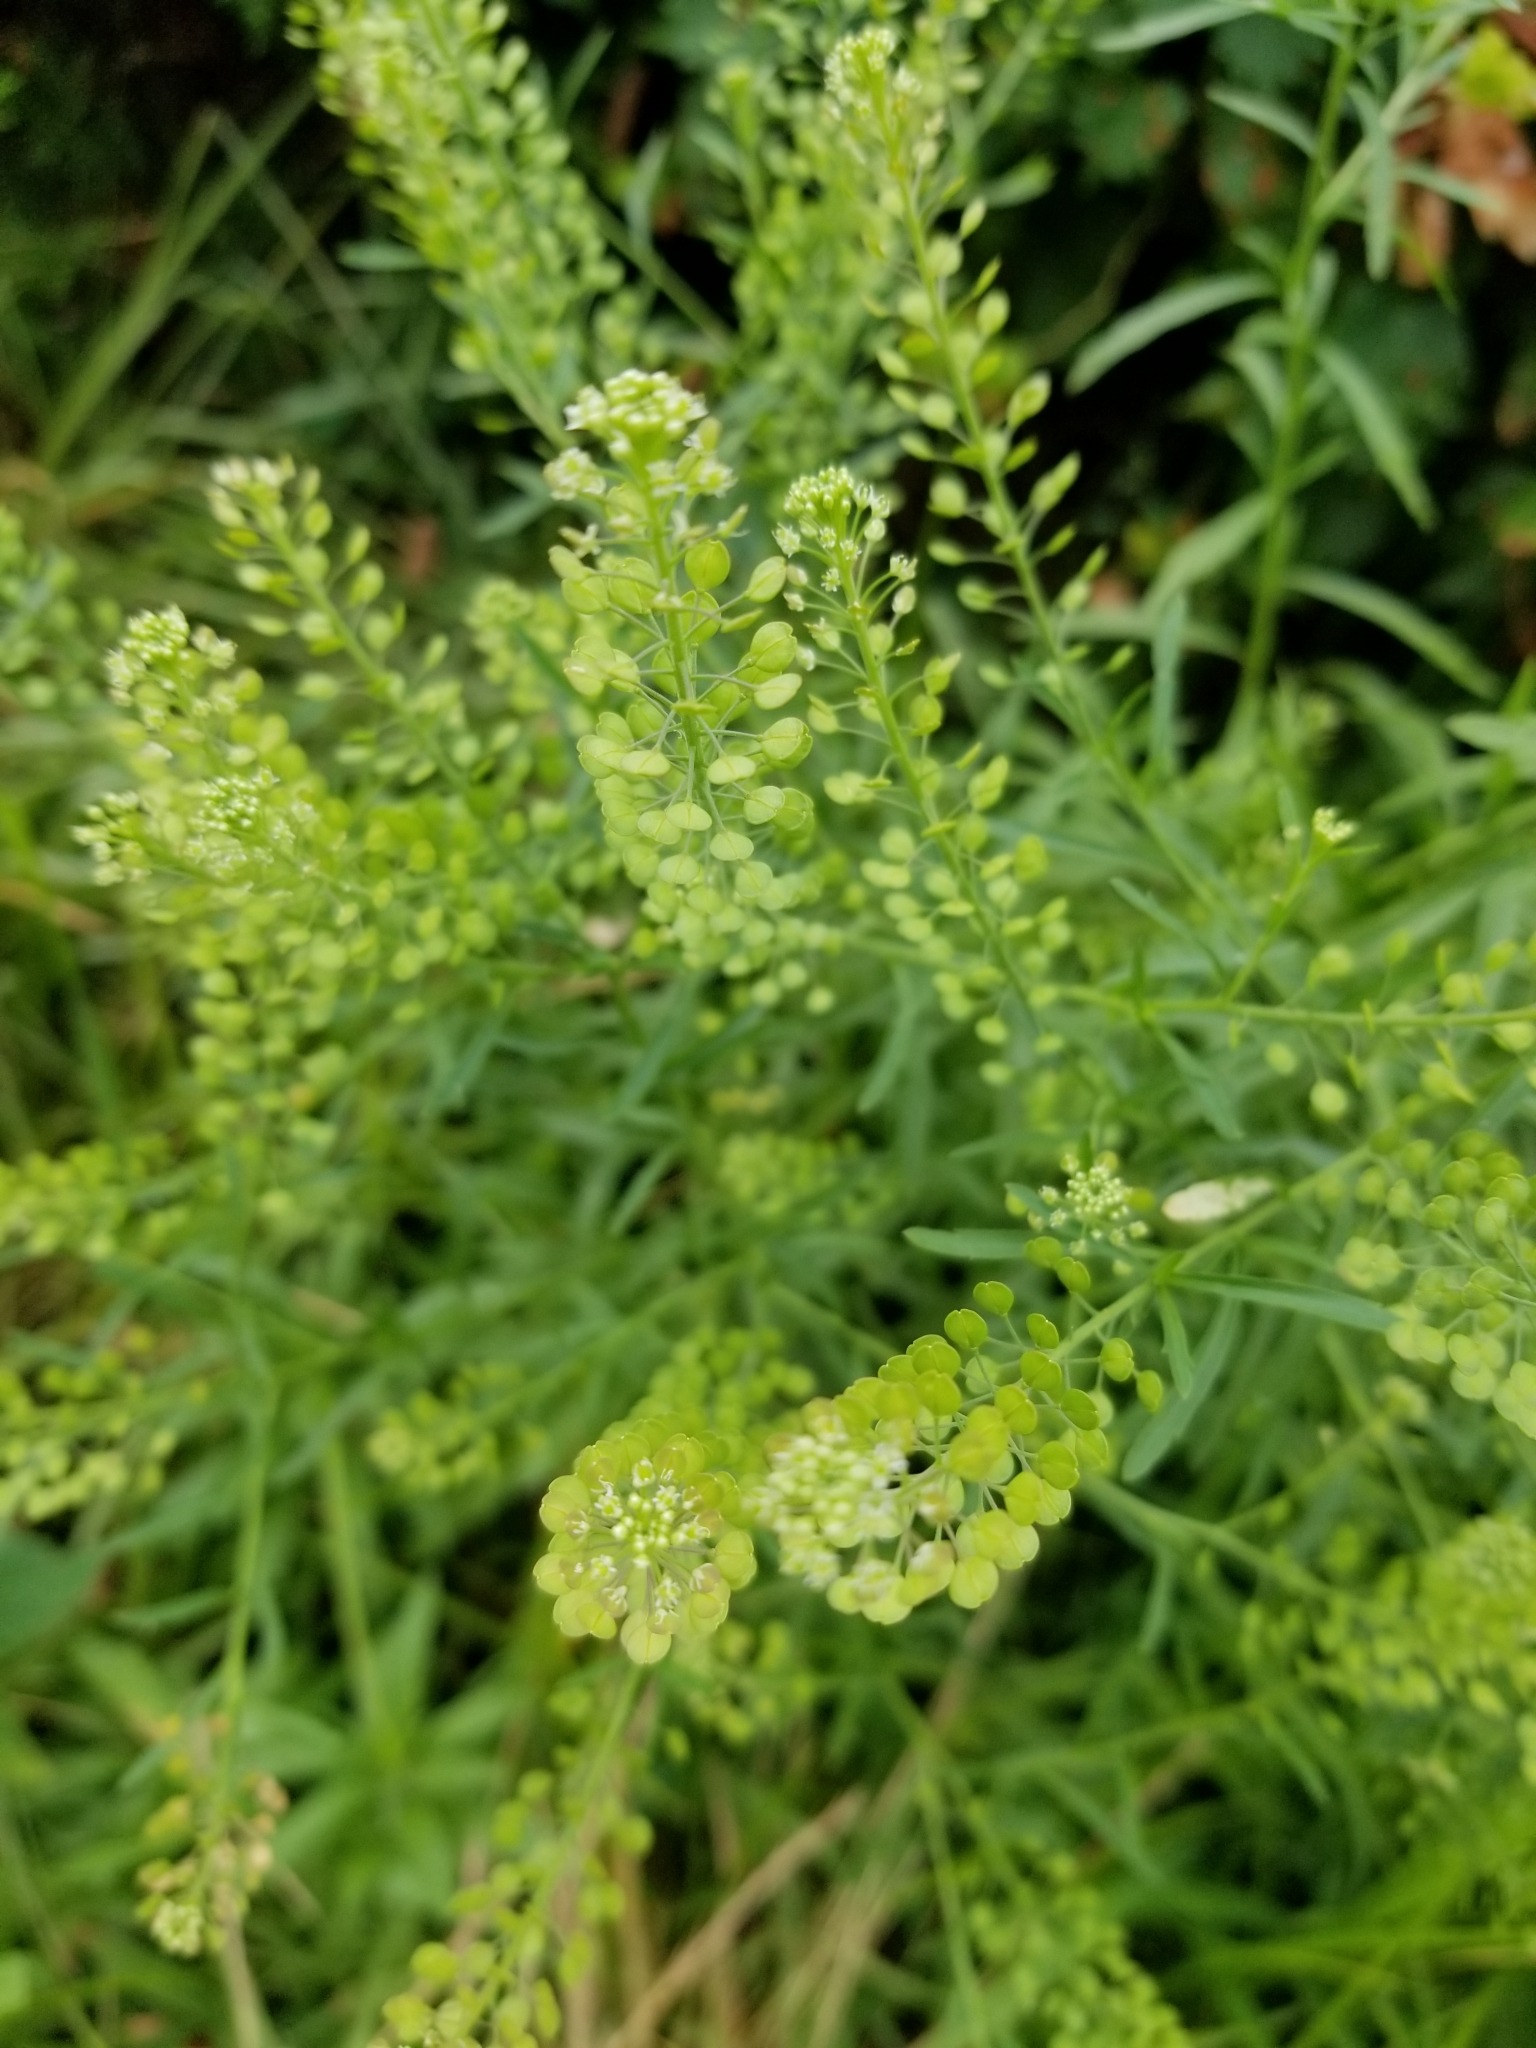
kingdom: Plantae
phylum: Tracheophyta
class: Magnoliopsida
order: Brassicales
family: Brassicaceae
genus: Lepidium
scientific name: Lepidium virginicum
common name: Least pepperwort
